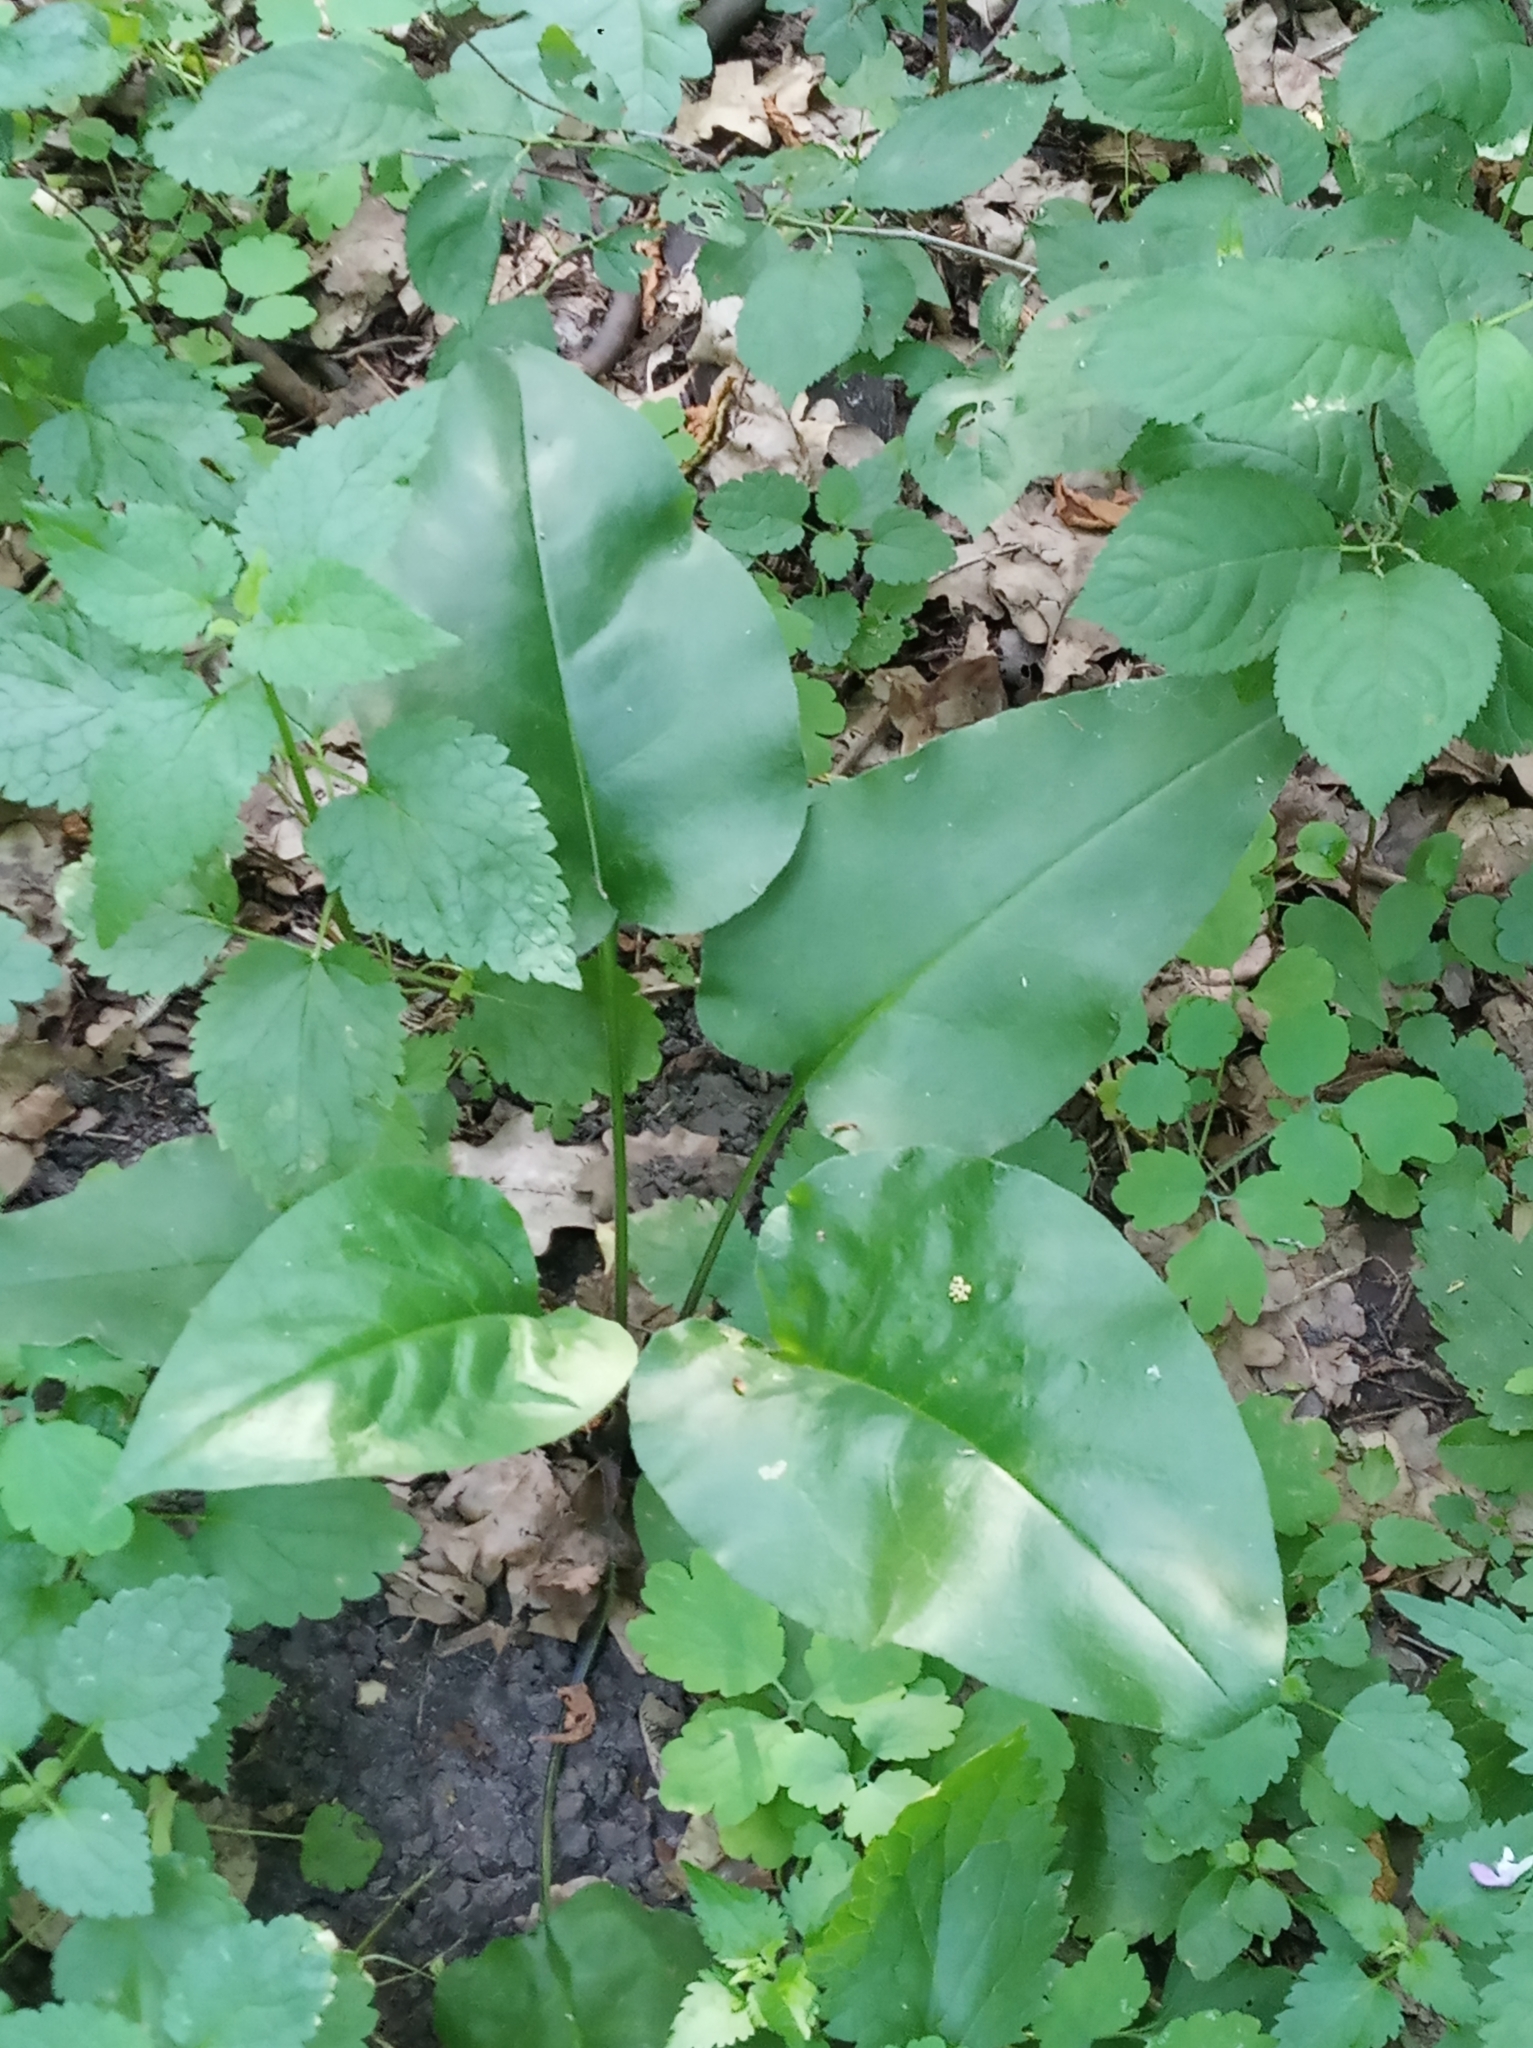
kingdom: Plantae
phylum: Tracheophyta
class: Magnoliopsida
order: Boraginales
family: Boraginaceae
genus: Pulmonaria
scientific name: Pulmonaria obscura
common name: Suffolk lungwort
